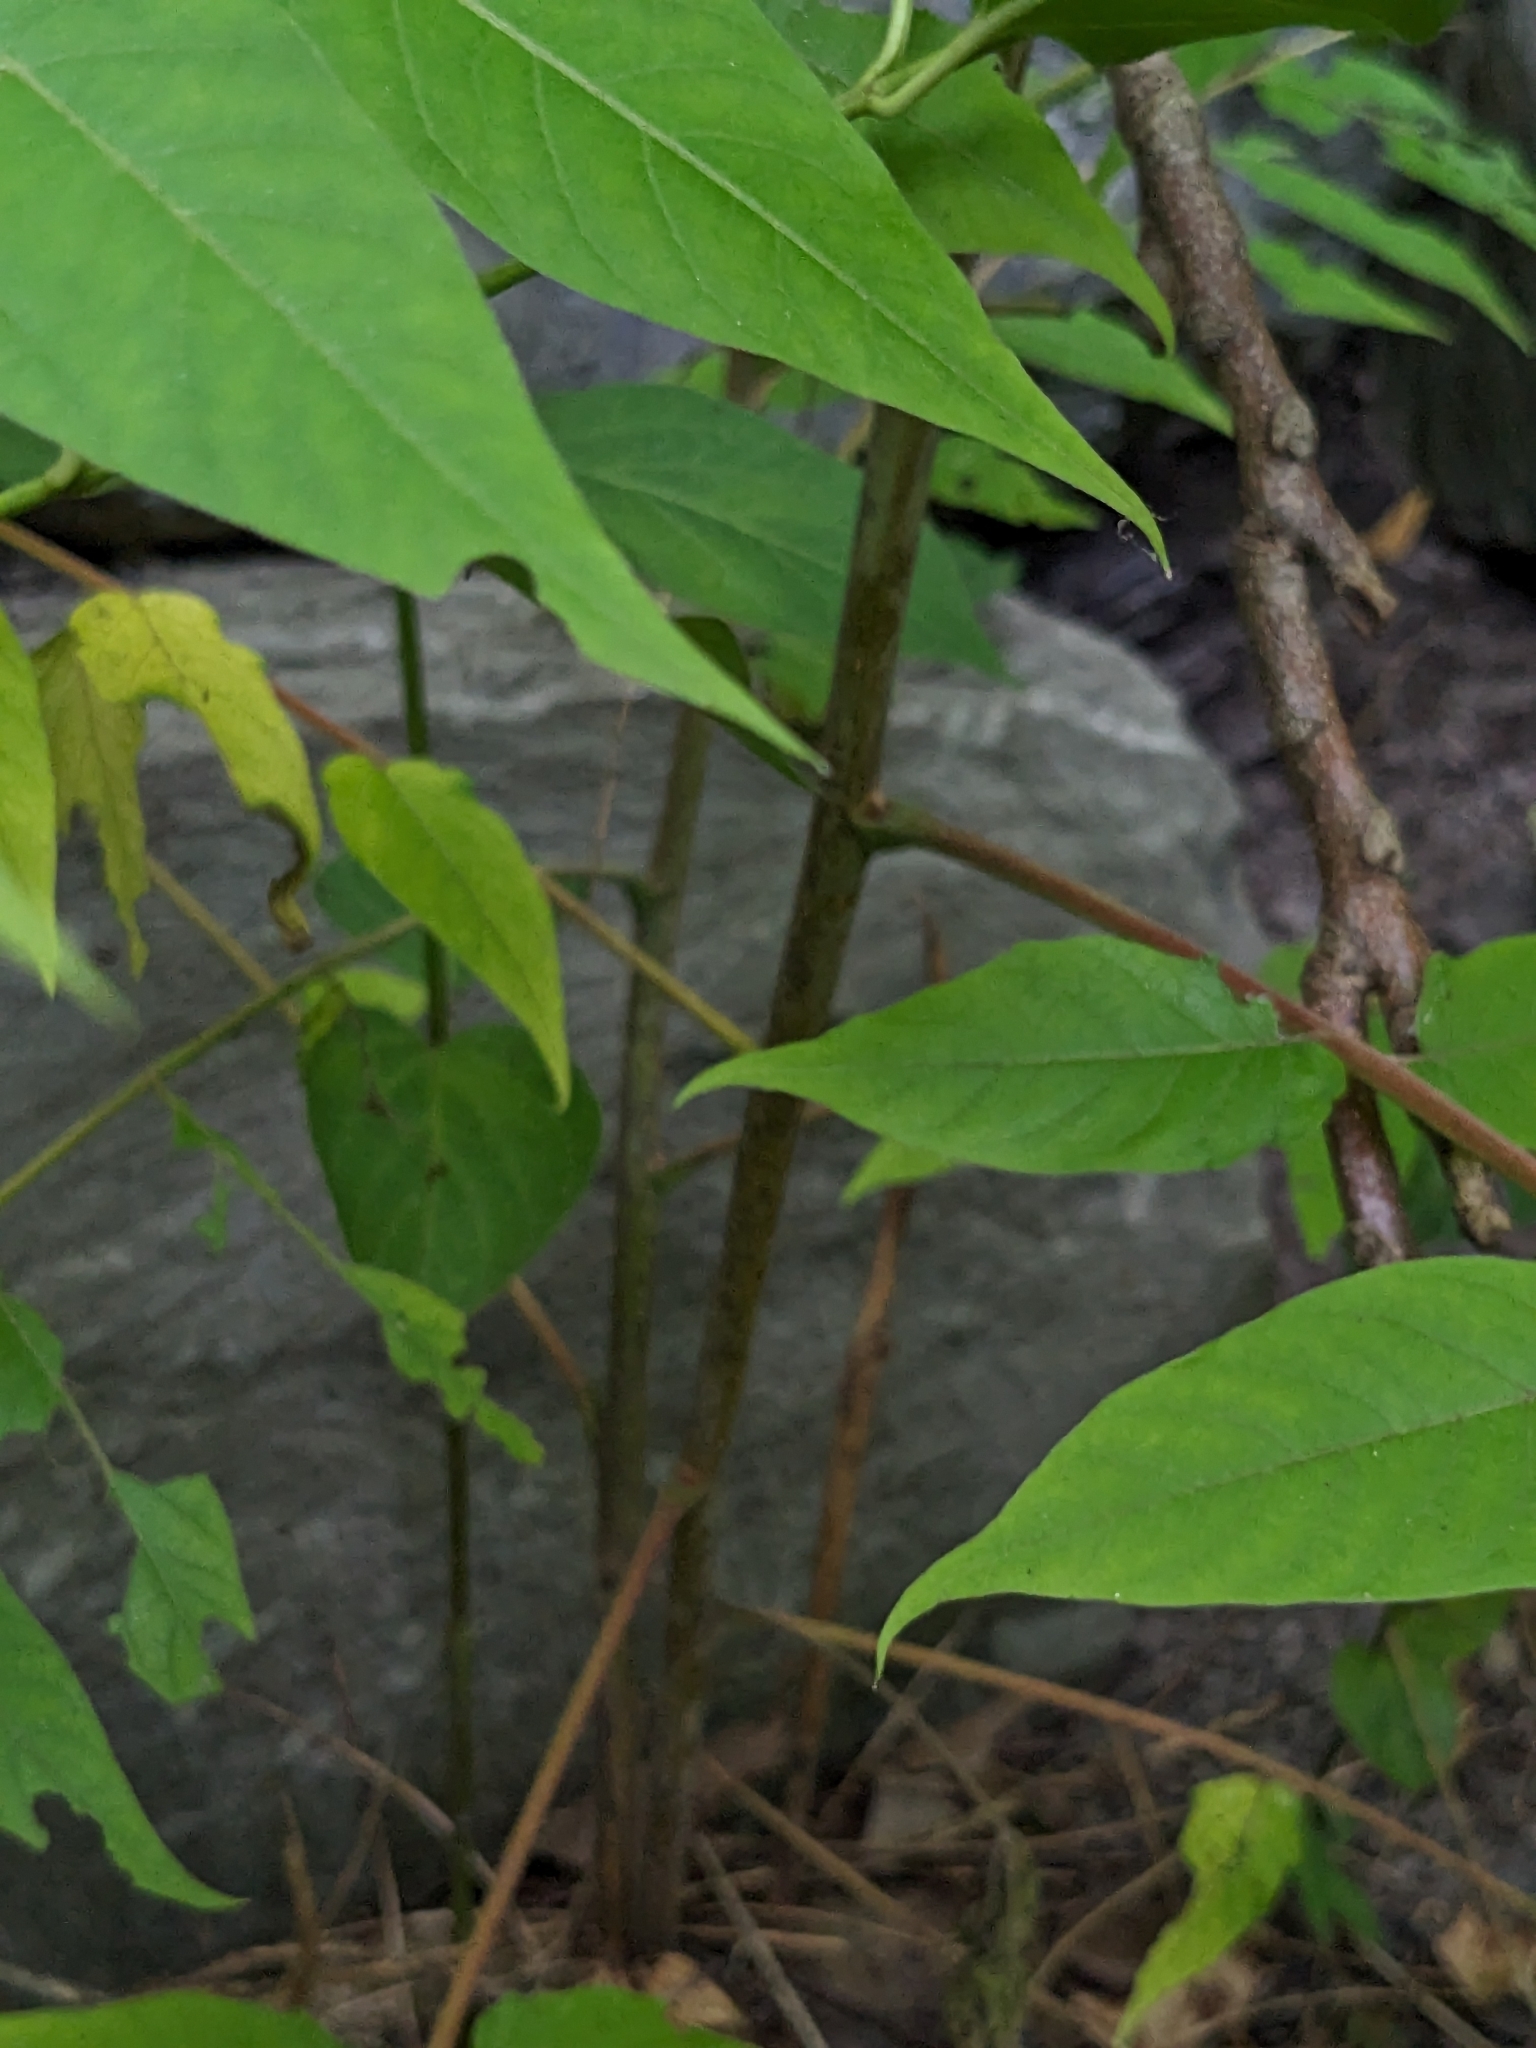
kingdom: Plantae
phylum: Tracheophyta
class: Magnoliopsida
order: Sapindales
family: Simaroubaceae
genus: Ailanthus
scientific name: Ailanthus altissima
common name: Tree-of-heaven
